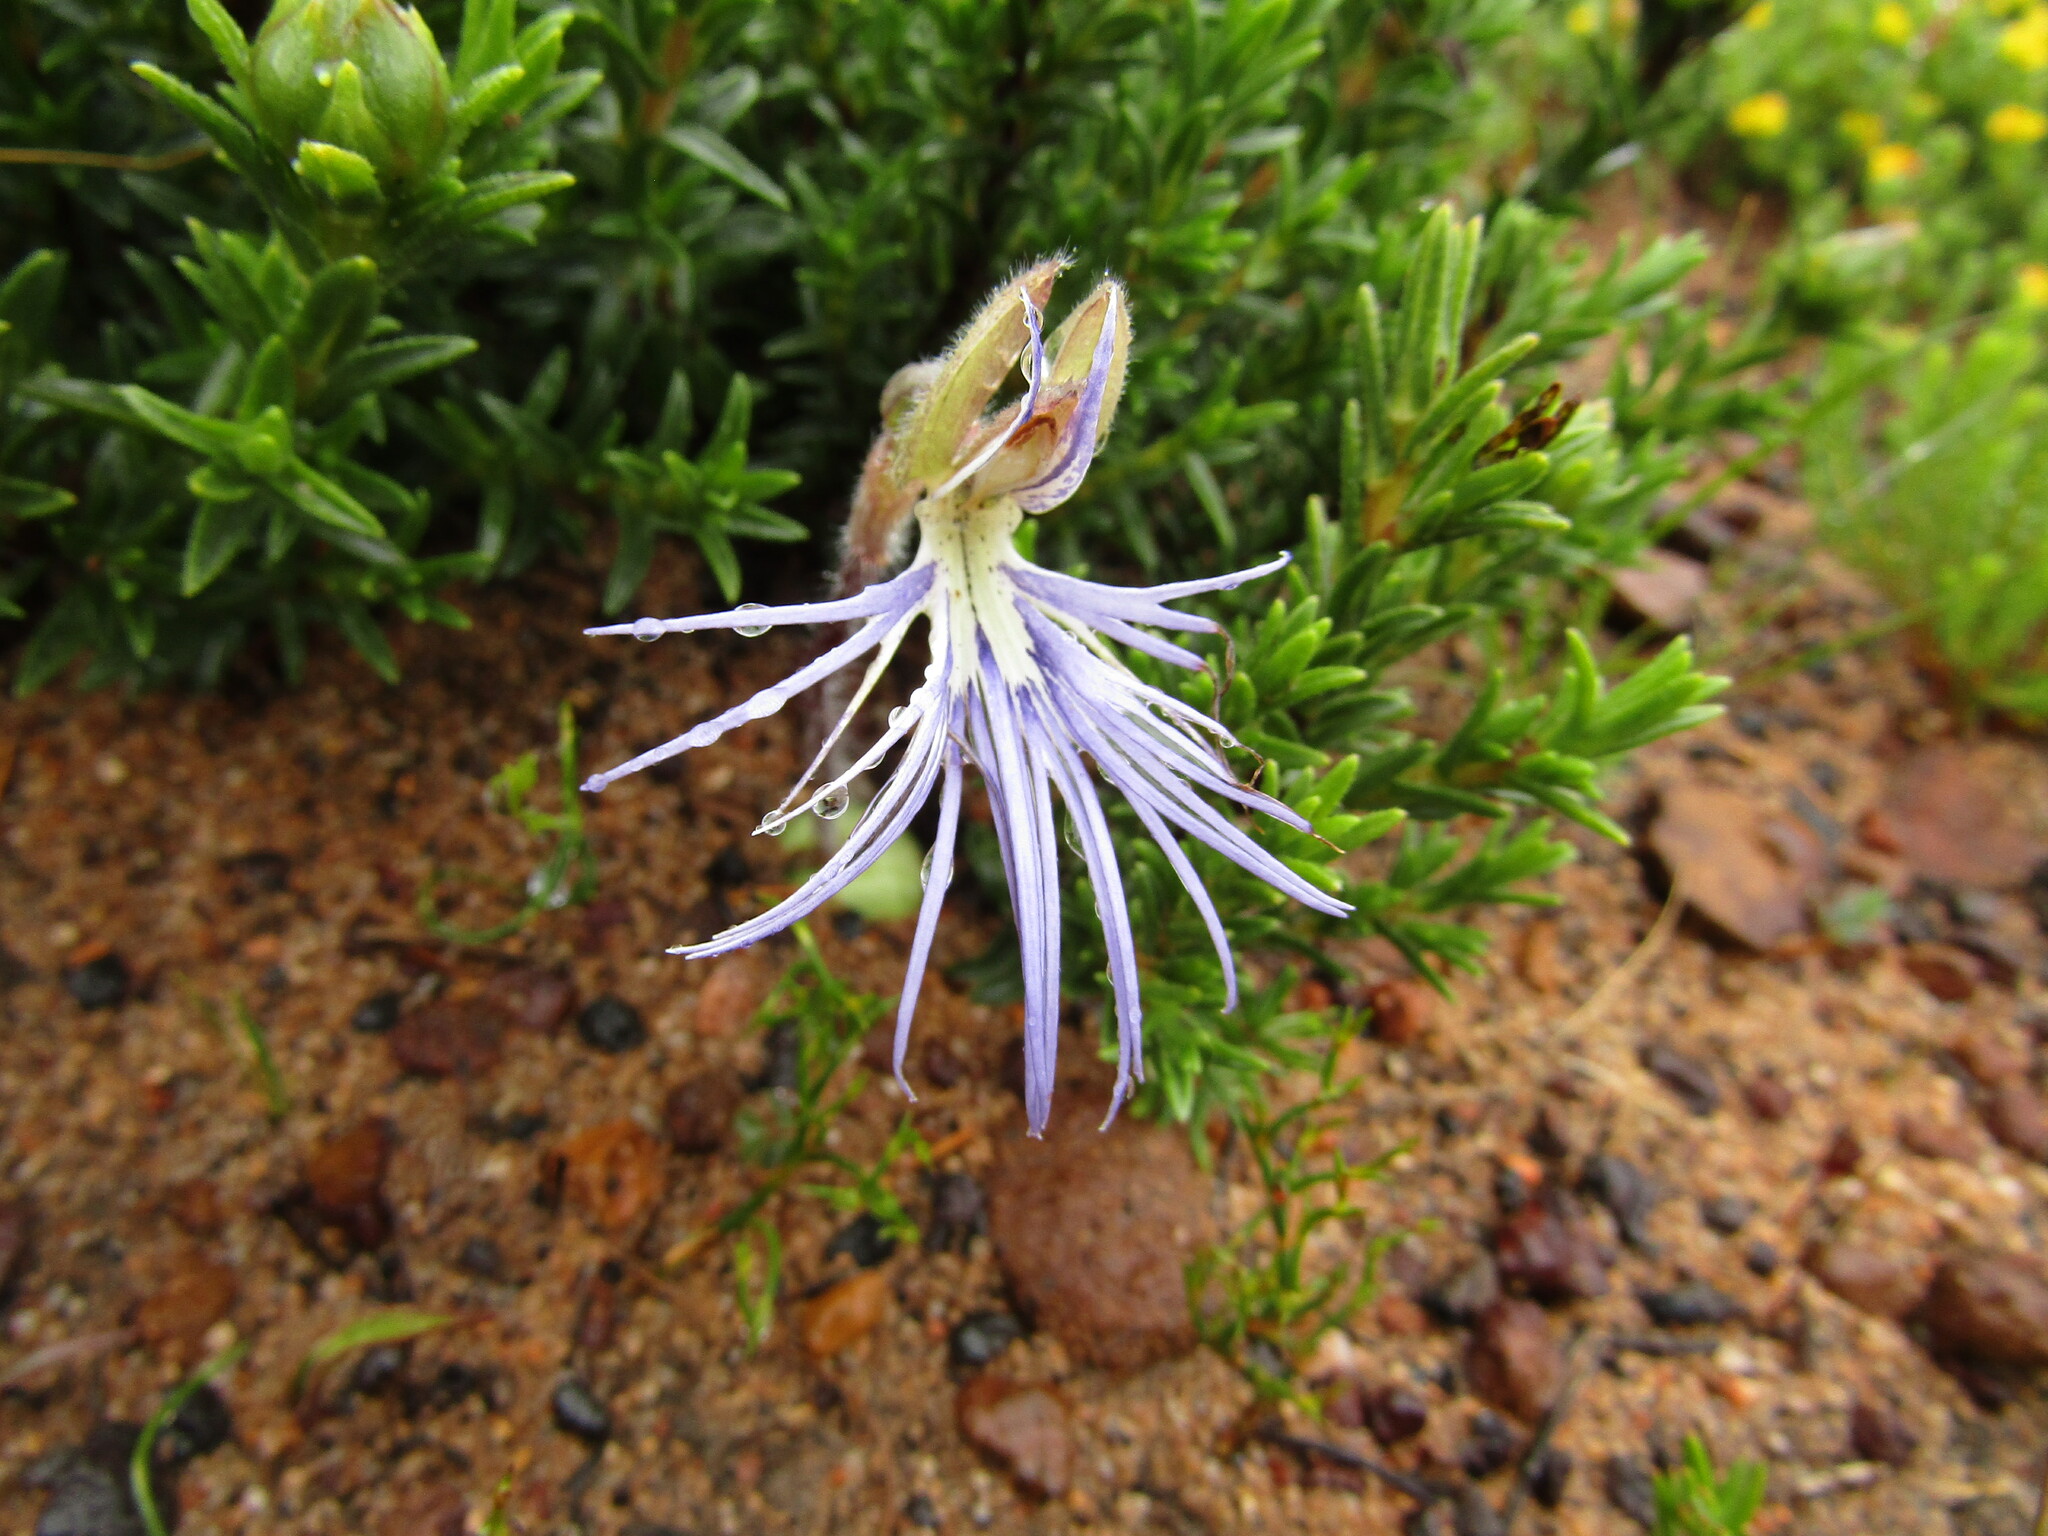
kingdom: Plantae
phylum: Tracheophyta
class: Liliopsida
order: Asparagales
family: Orchidaceae
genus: Holothrix
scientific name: Holothrix burmanniana
